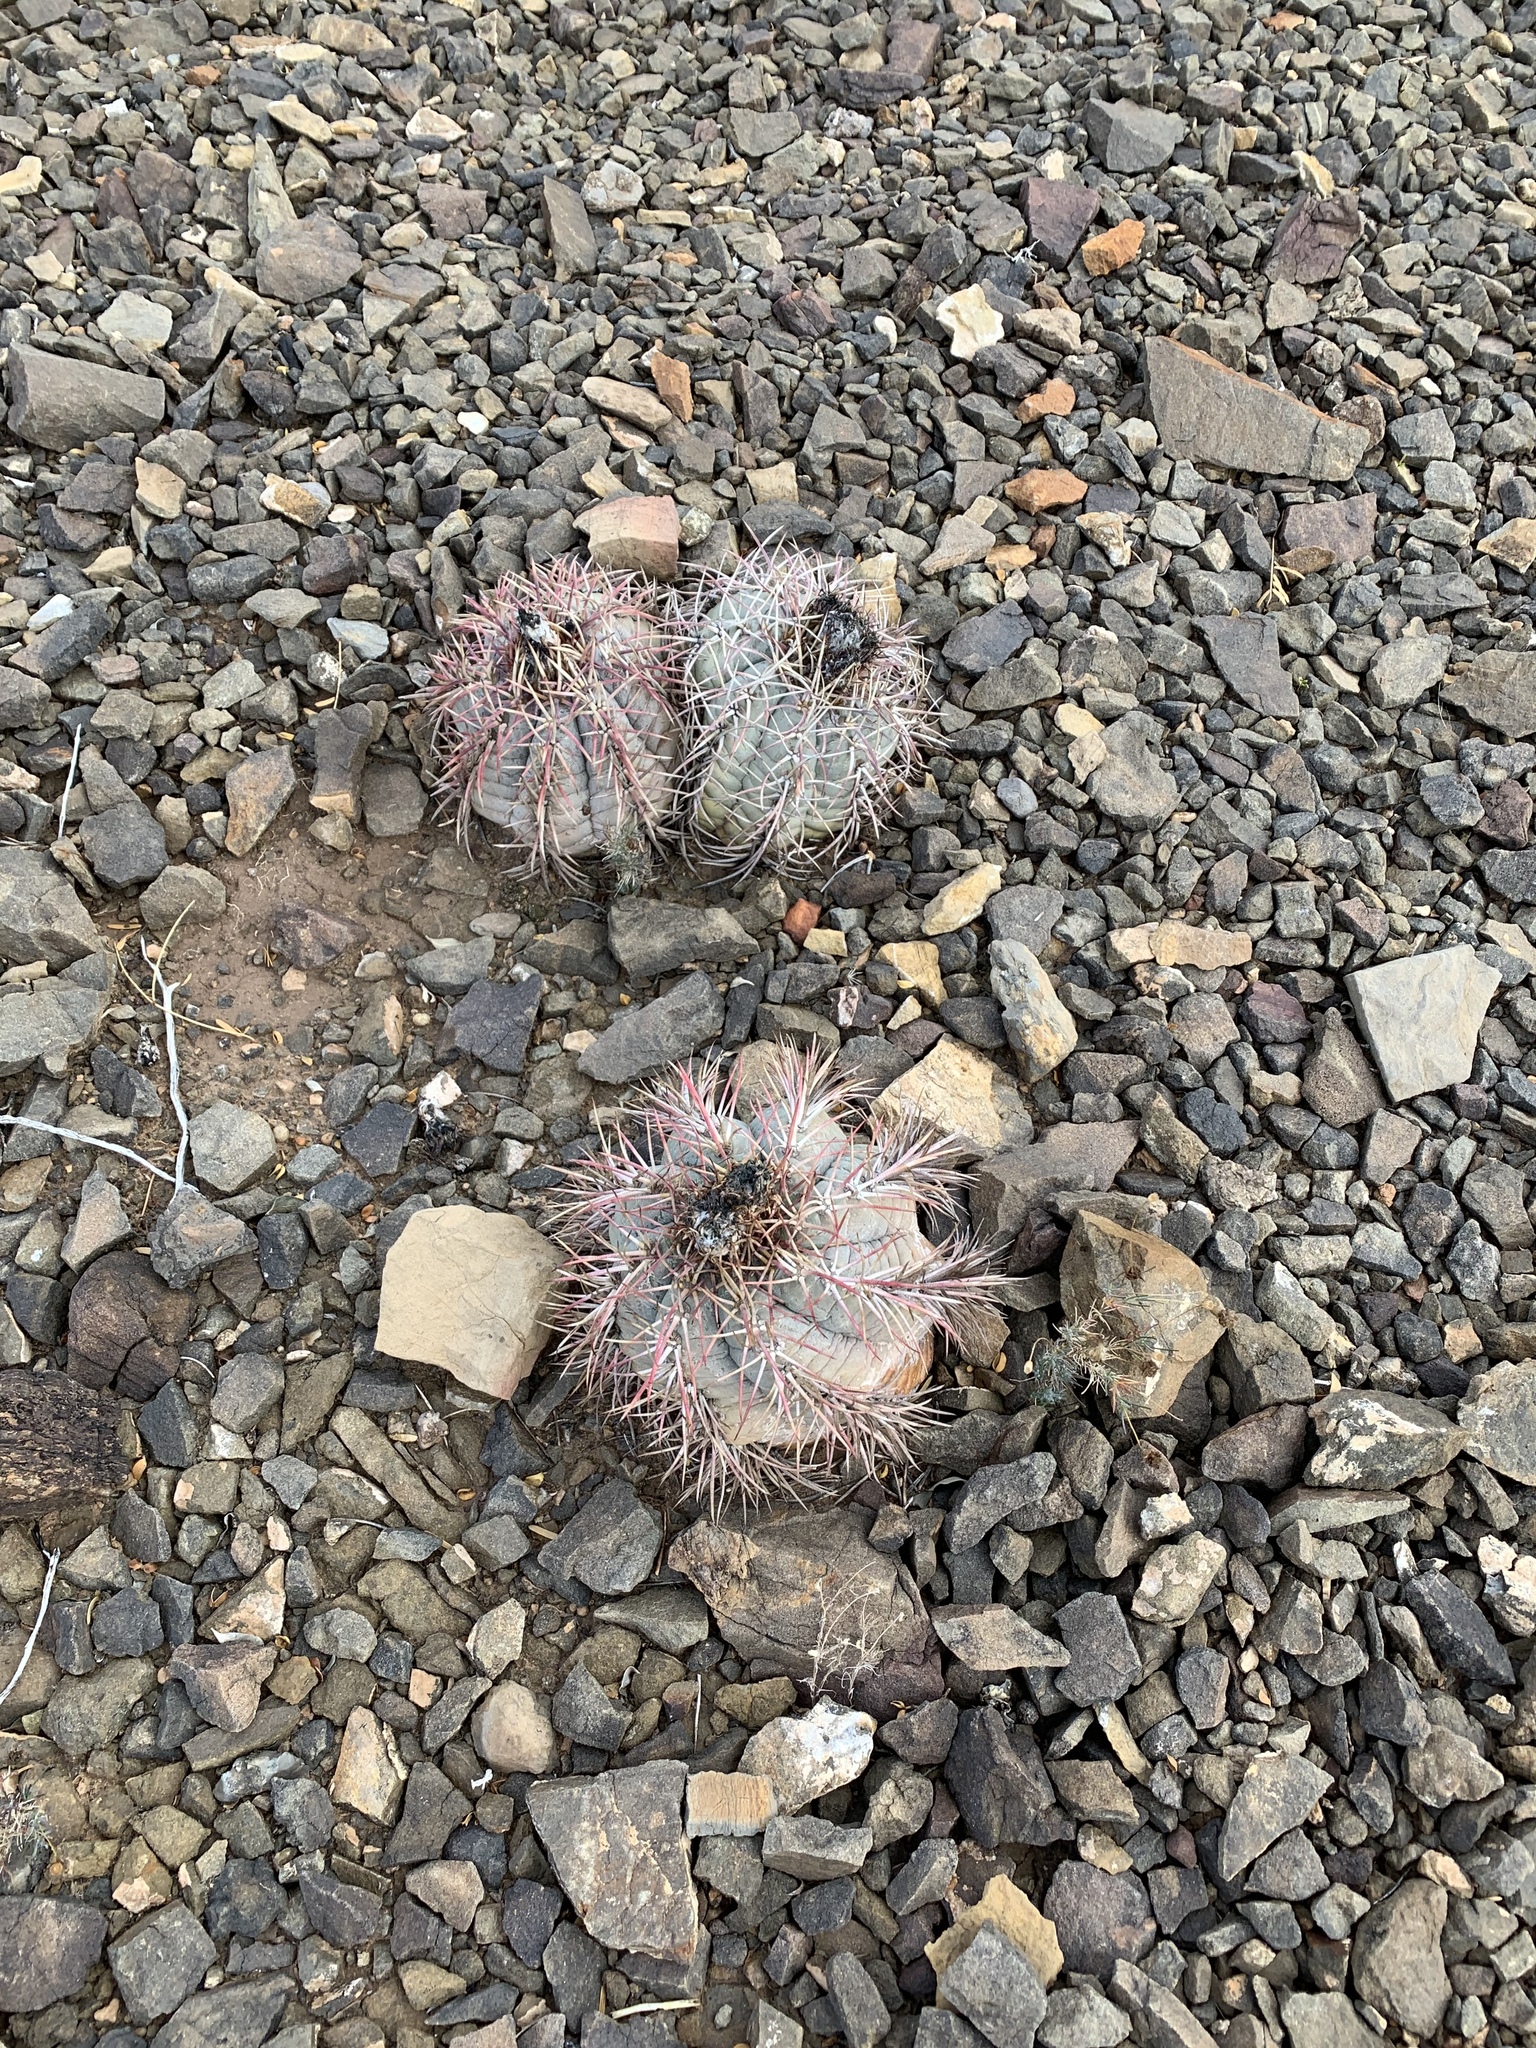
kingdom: Plantae
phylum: Tracheophyta
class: Magnoliopsida
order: Caryophyllales
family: Cactaceae
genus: Echinocactus
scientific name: Echinocactus horizonthalonius
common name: Devilshead
